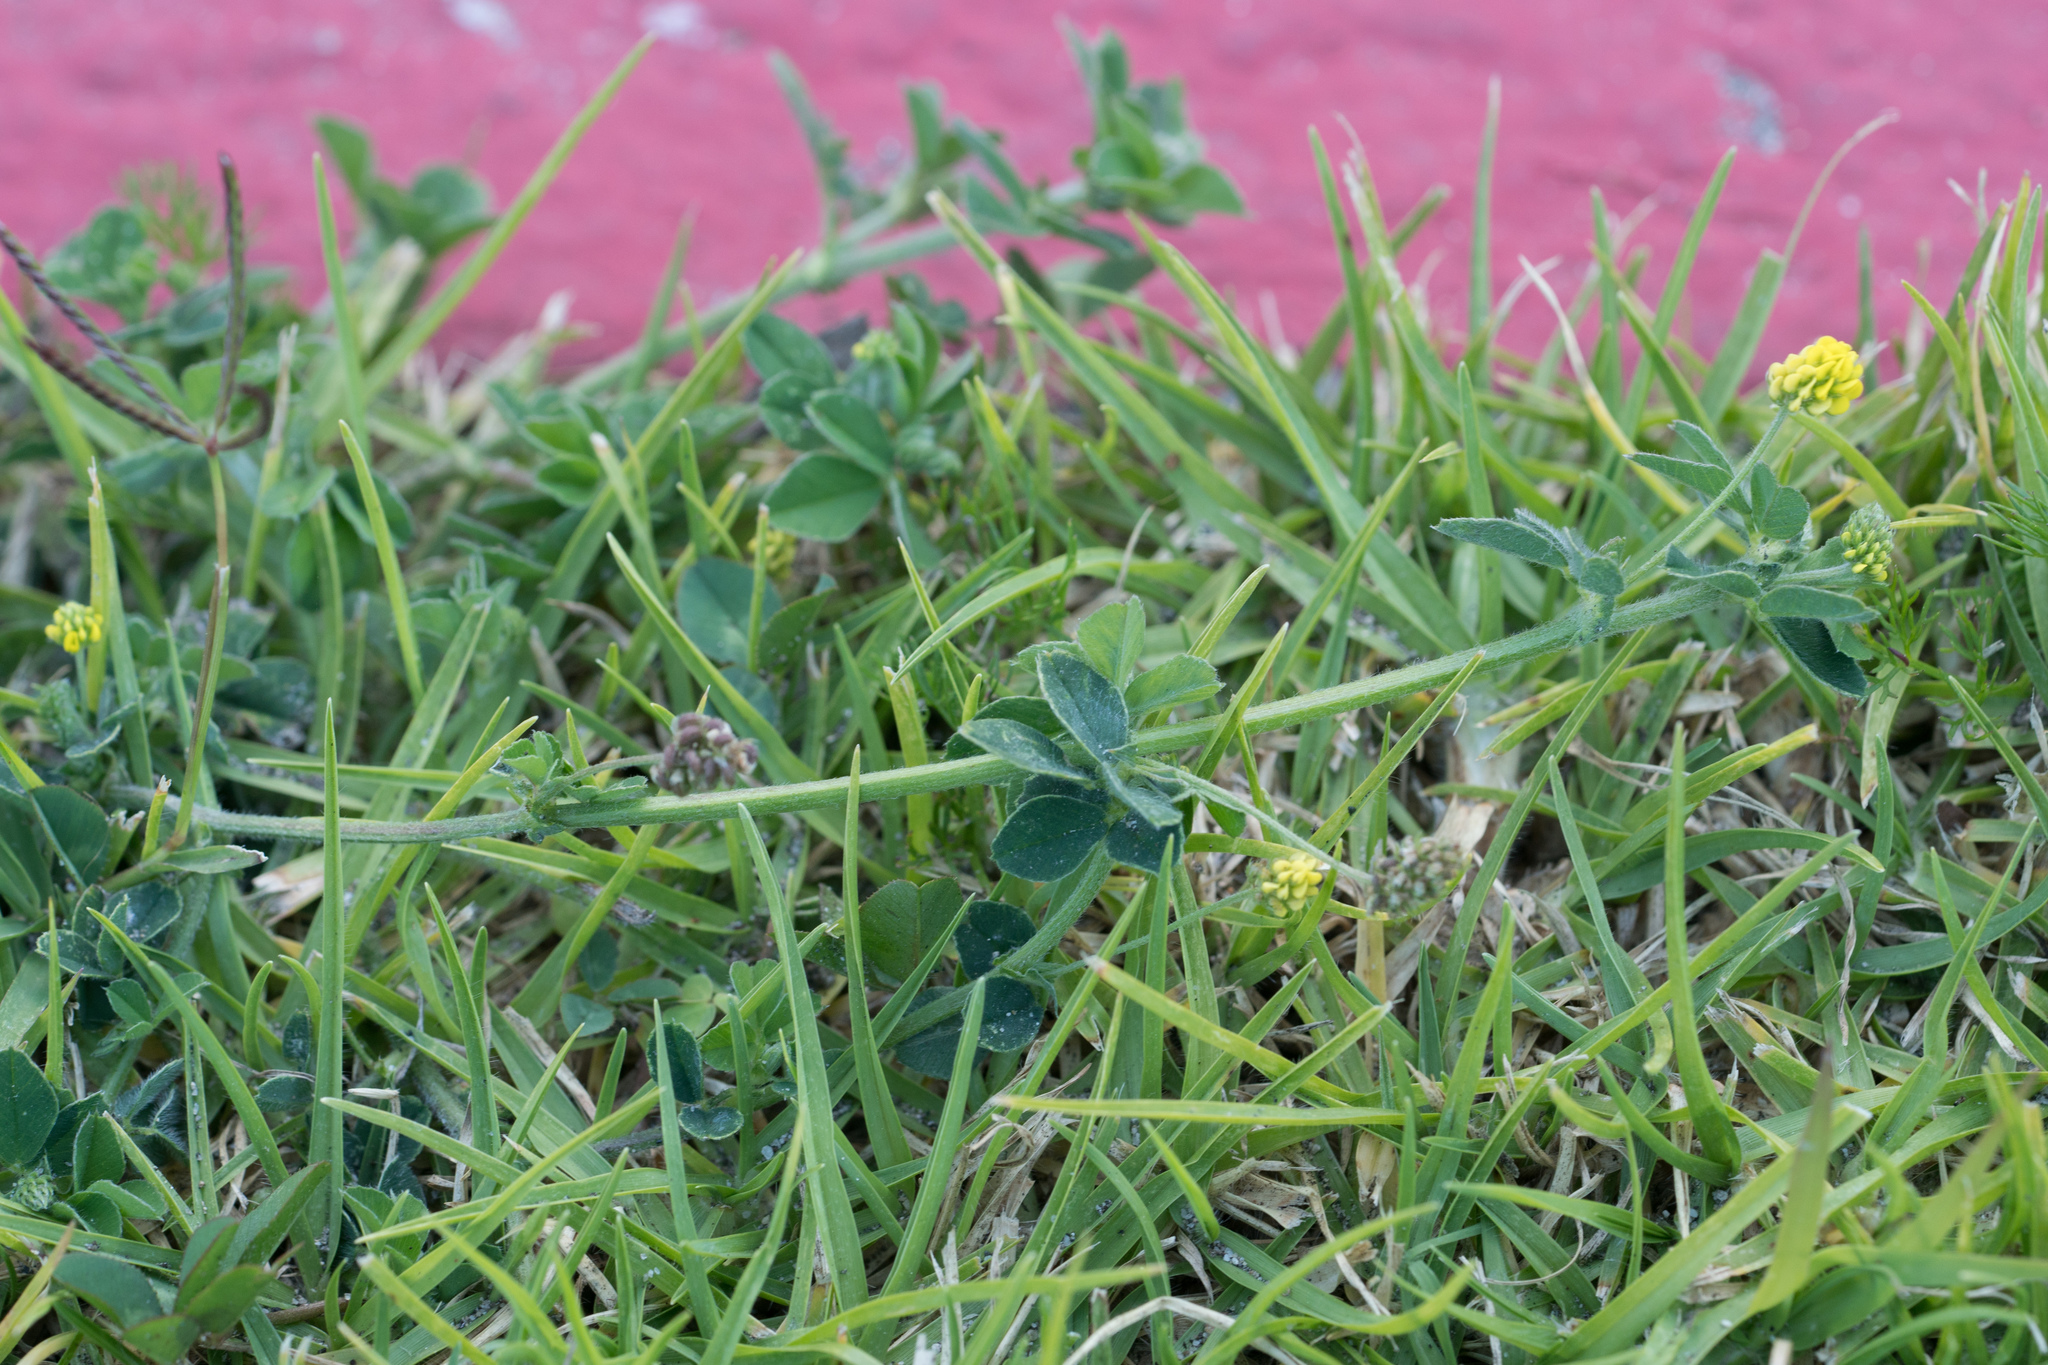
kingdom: Plantae
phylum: Tracheophyta
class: Magnoliopsida
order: Fabales
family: Fabaceae
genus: Medicago
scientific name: Medicago lupulina
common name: Black medick
